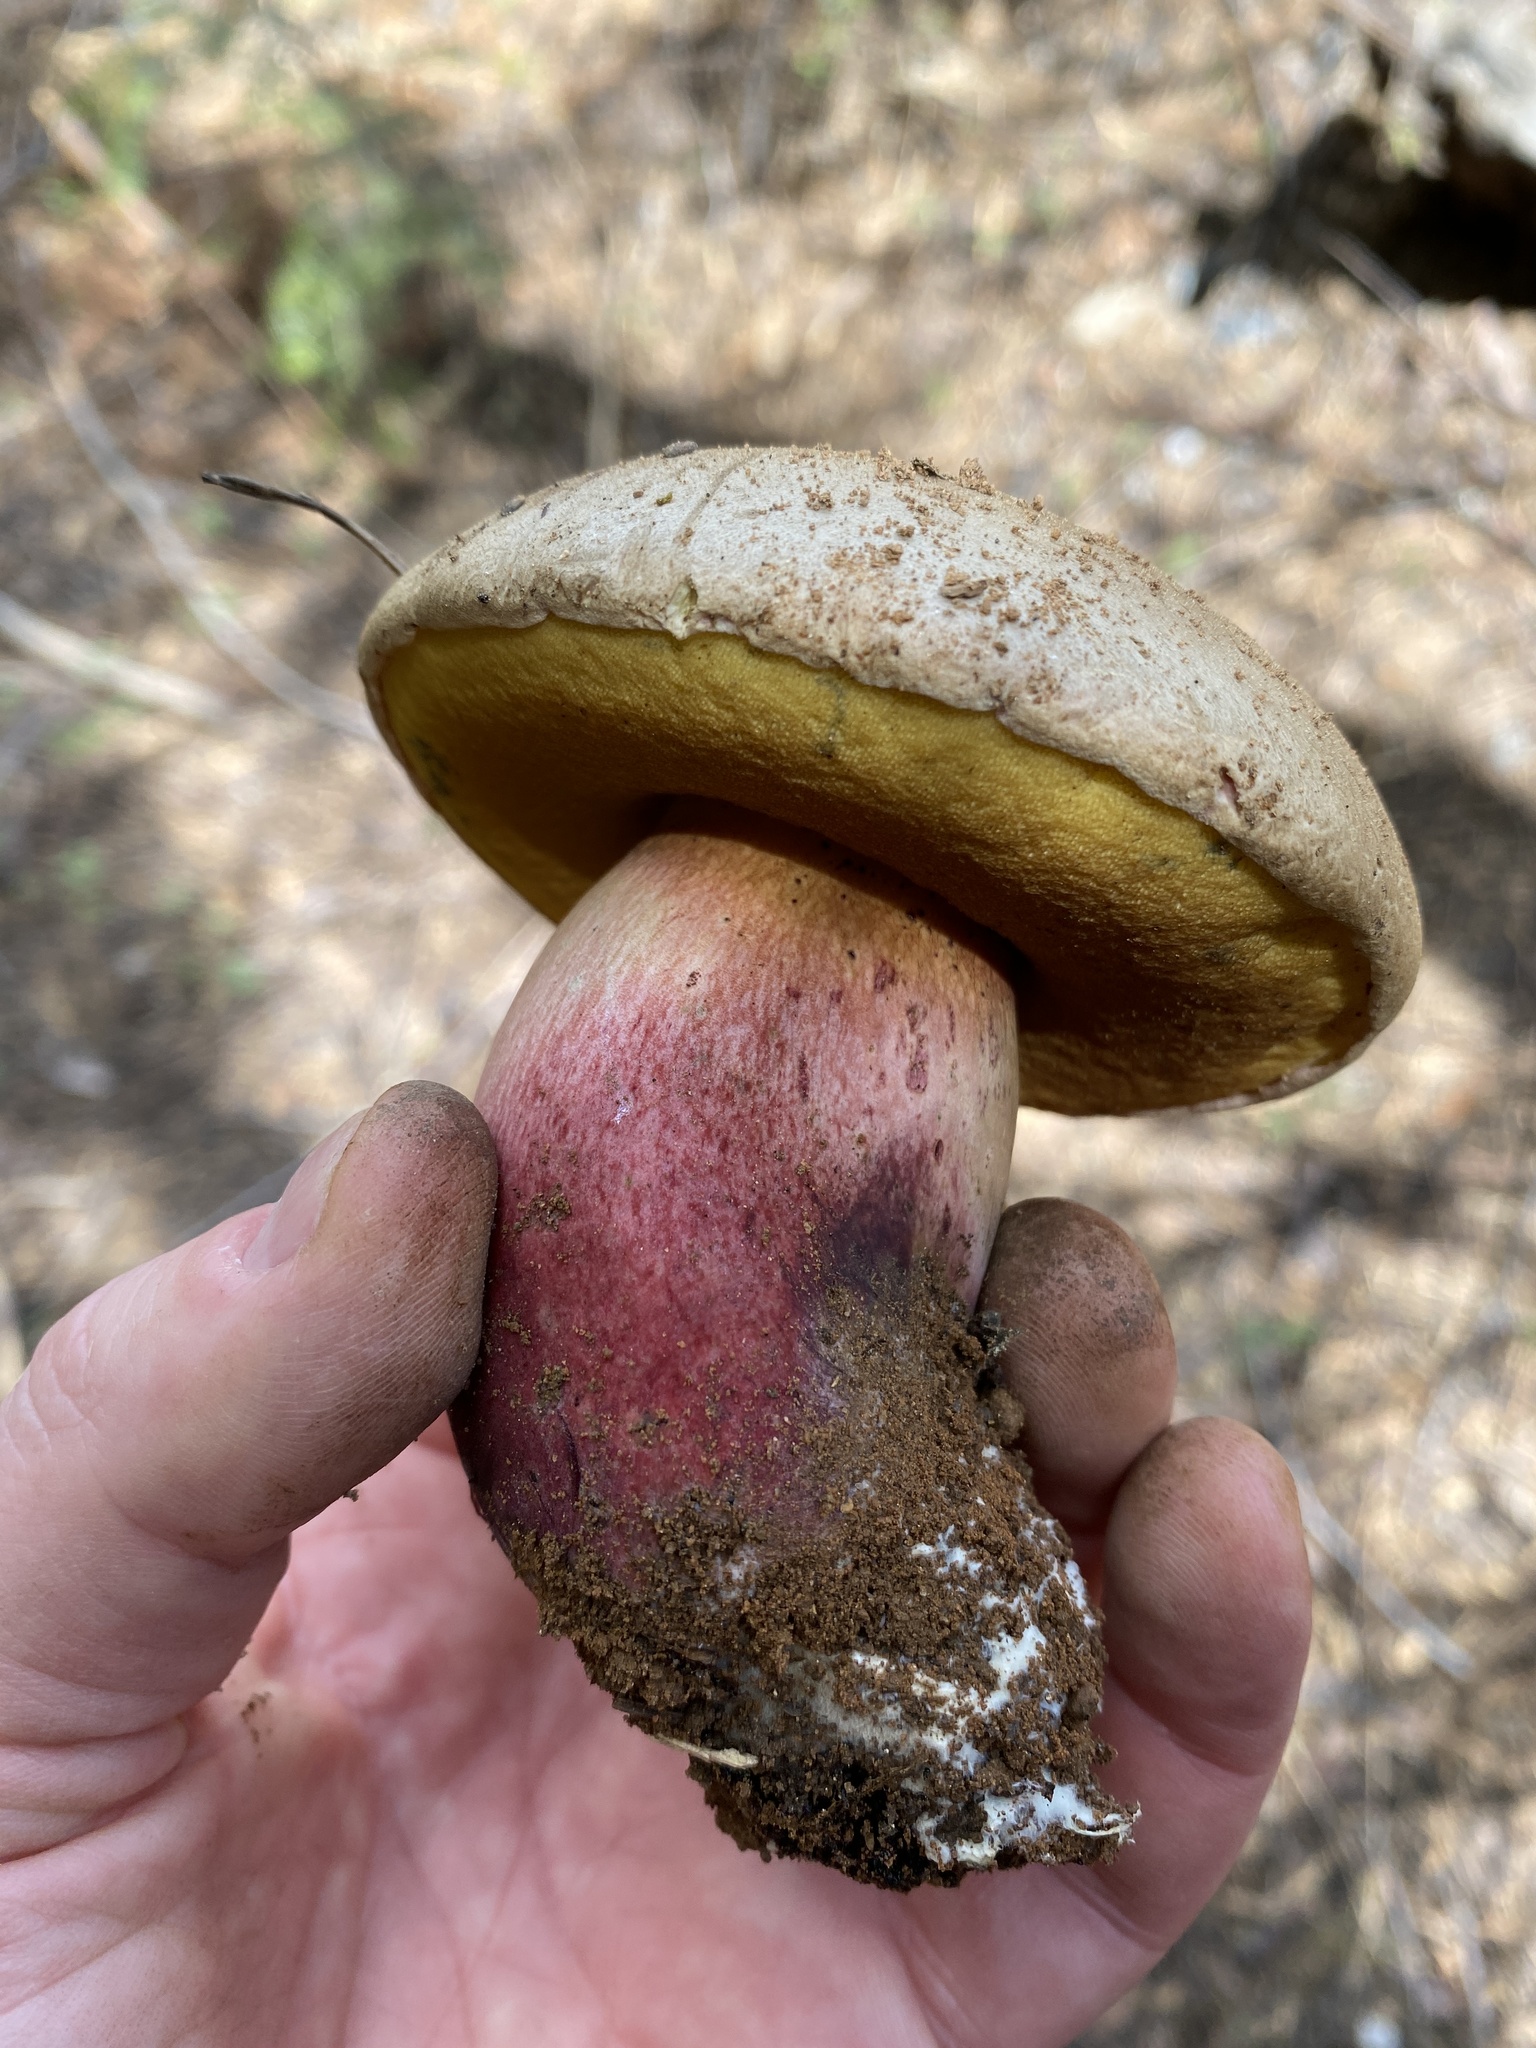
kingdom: Fungi
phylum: Basidiomycota
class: Agaricomycetes
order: Boletales
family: Boletaceae
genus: Caloboletus
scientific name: Caloboletus frustosus
